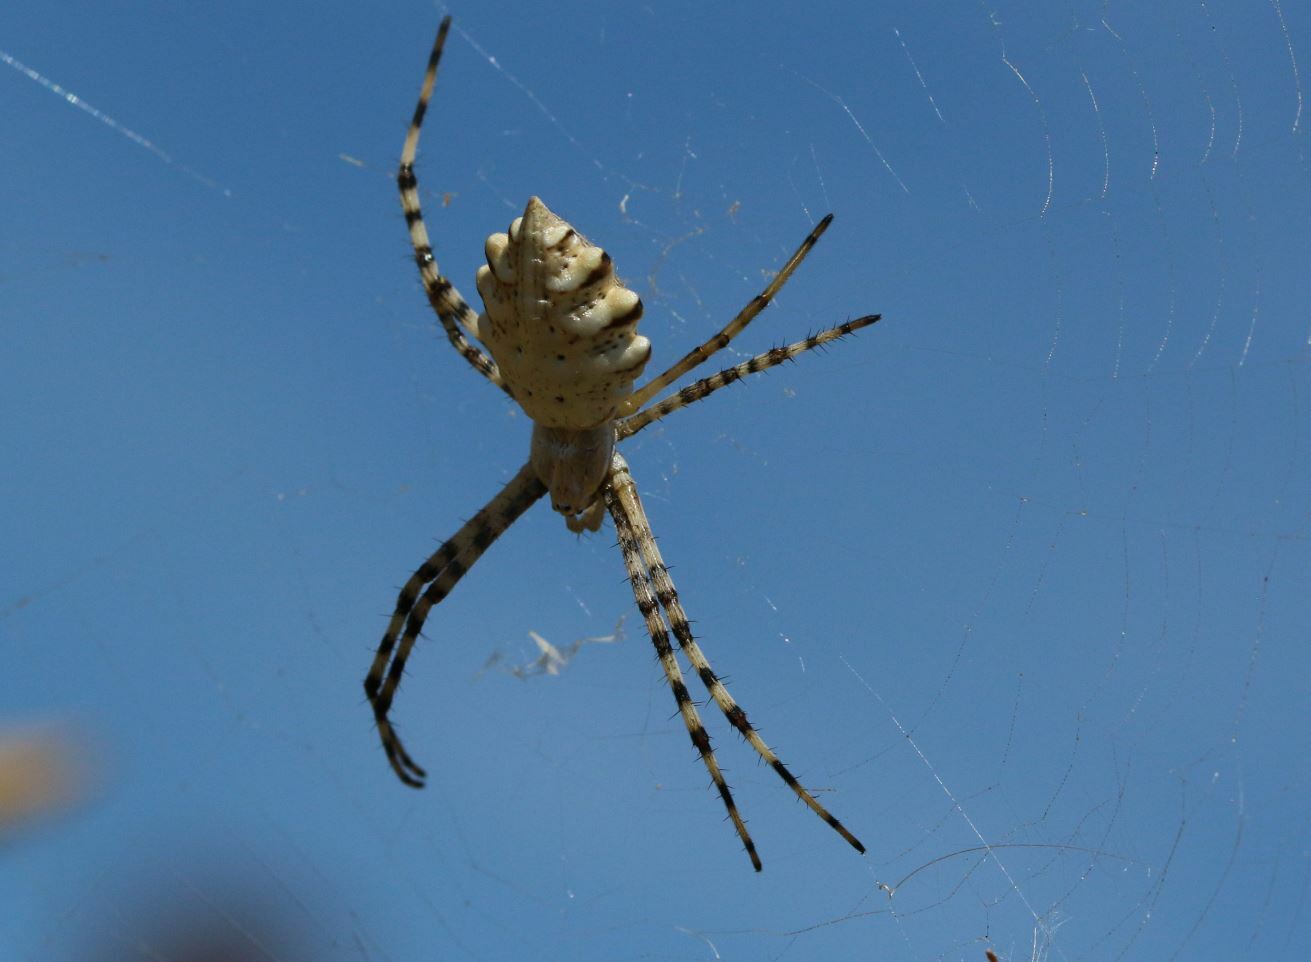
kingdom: Animalia
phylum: Arthropoda
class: Arachnida
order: Araneae
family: Araneidae
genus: Argiope
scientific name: Argiope lobata
